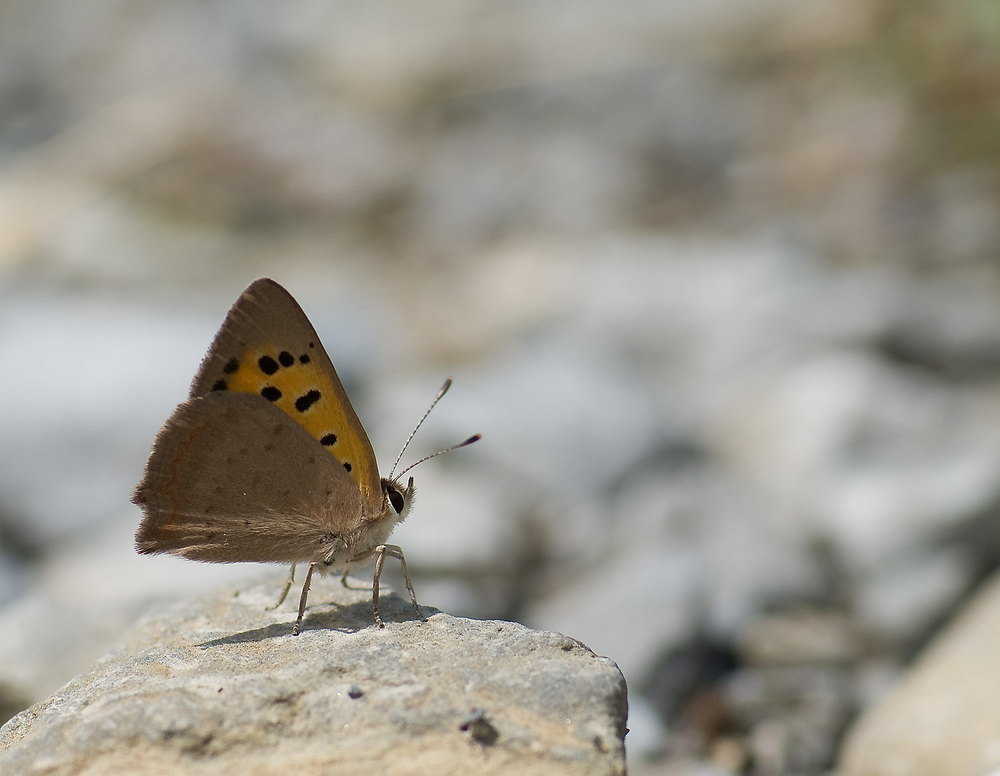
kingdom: Animalia
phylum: Arthropoda
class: Insecta
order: Lepidoptera
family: Lycaenidae
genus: Lycaena
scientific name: Lycaena phlaeas
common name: Small copper
